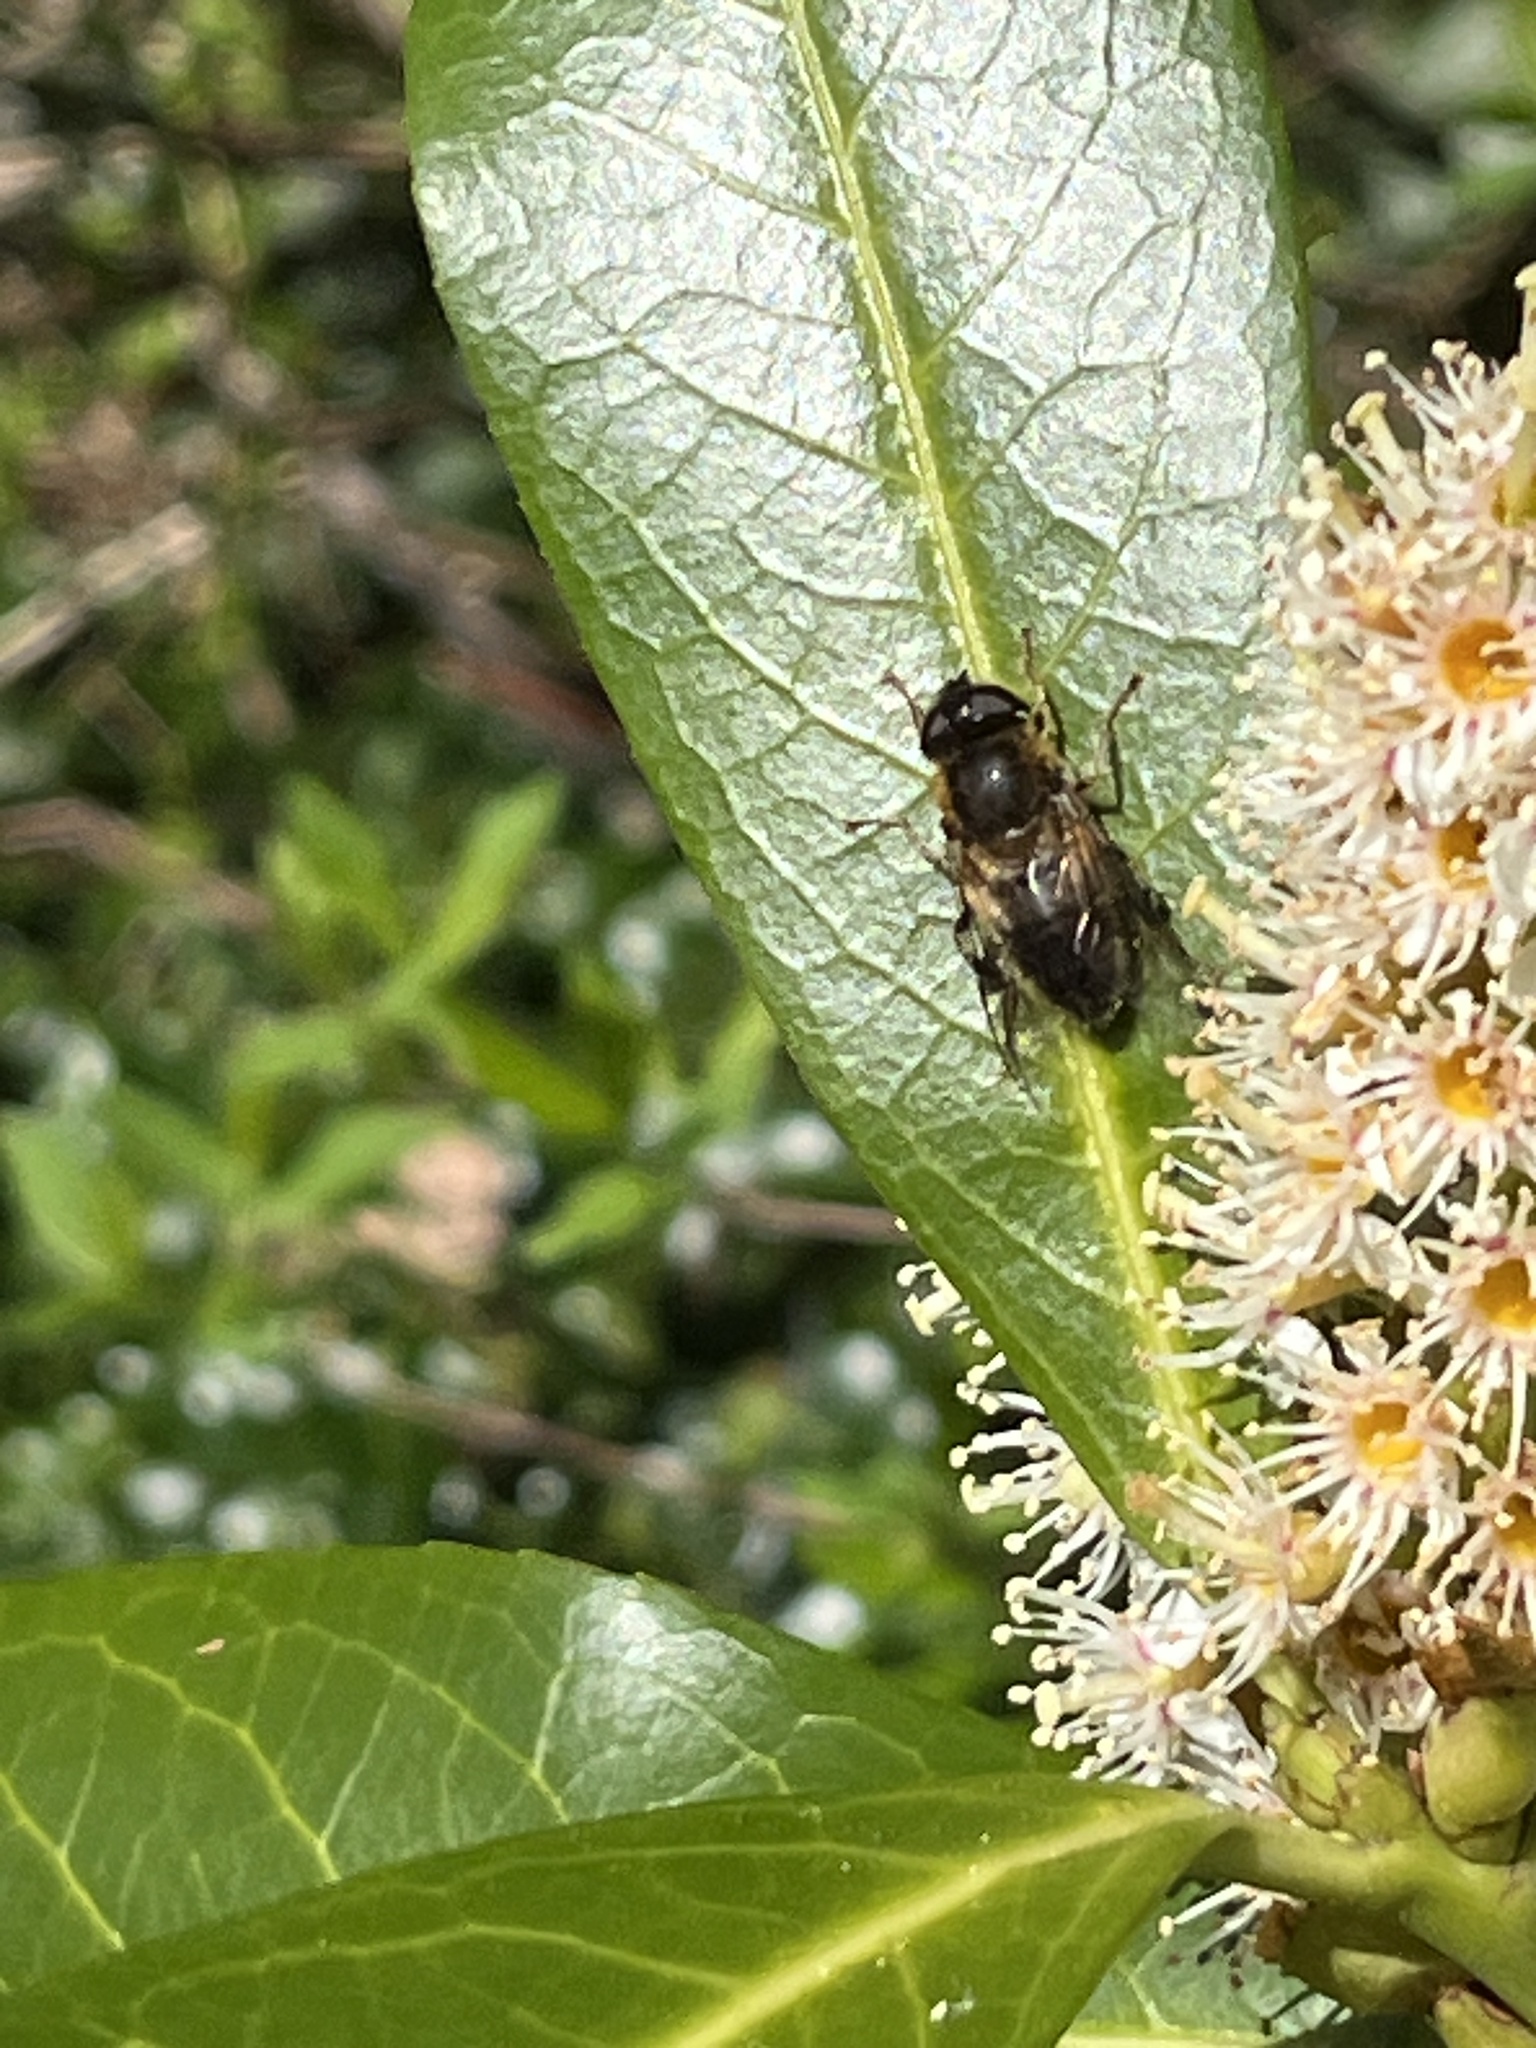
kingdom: Animalia
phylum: Arthropoda
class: Insecta
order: Diptera
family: Syrphidae
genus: Eristalis
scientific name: Eristalis pertinax
